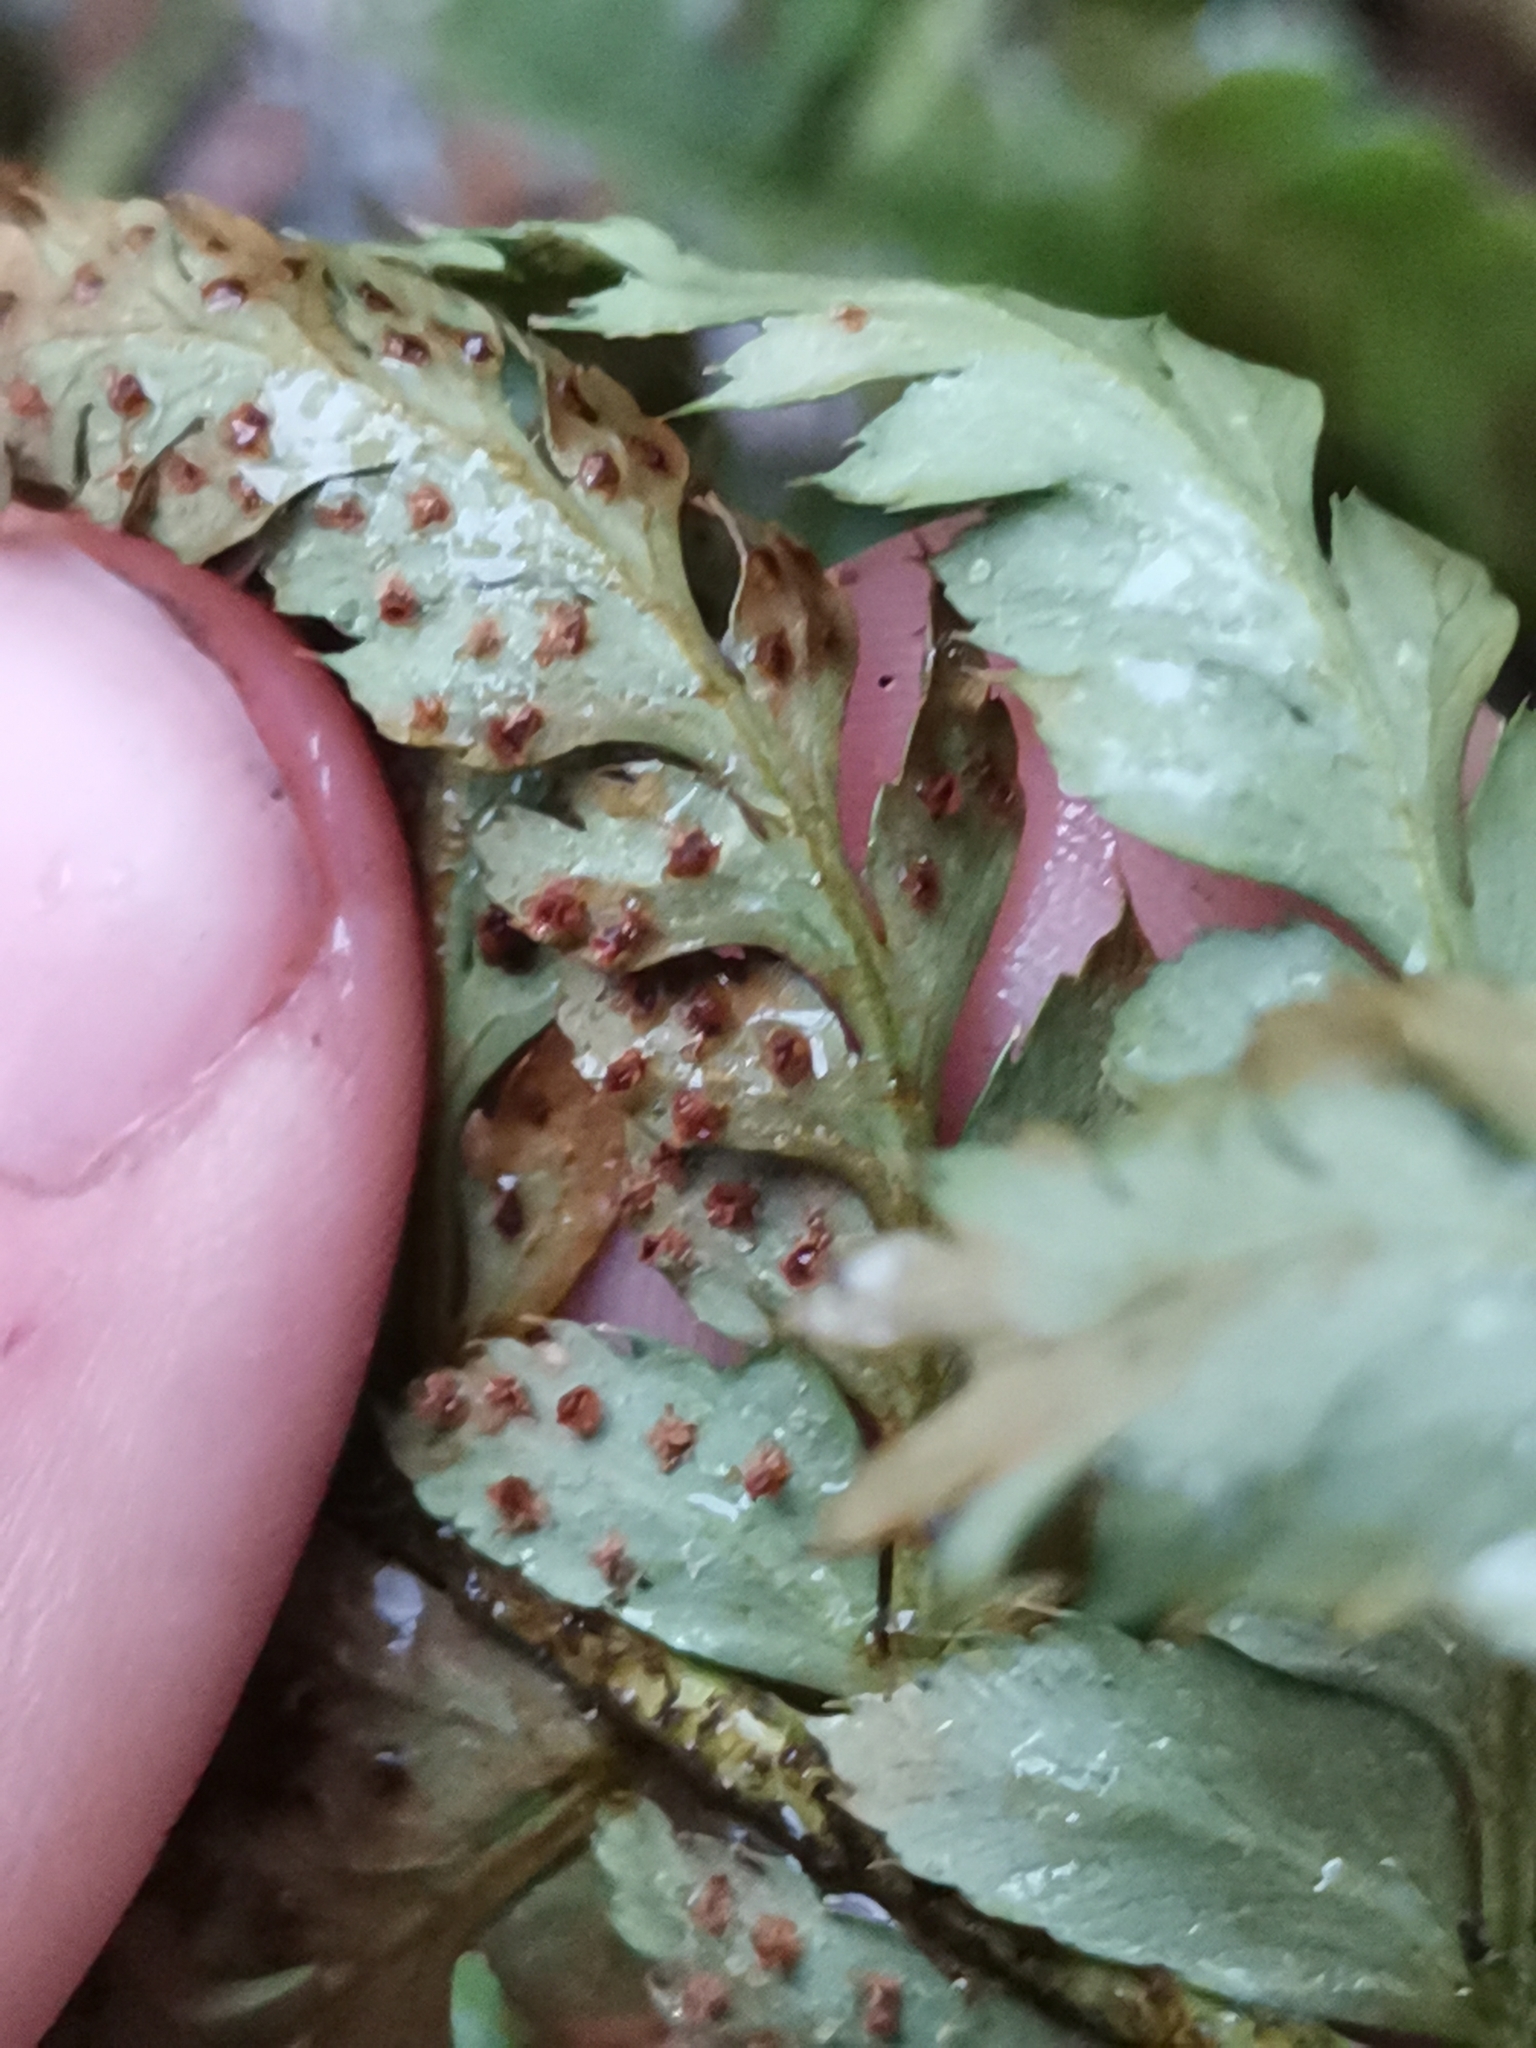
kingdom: Plantae
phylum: Tracheophyta
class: Polypodiopsida
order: Polypodiales
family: Dryopteridaceae
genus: Polystichum
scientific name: Polystichum aculeatum
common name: Hard shield-fern
